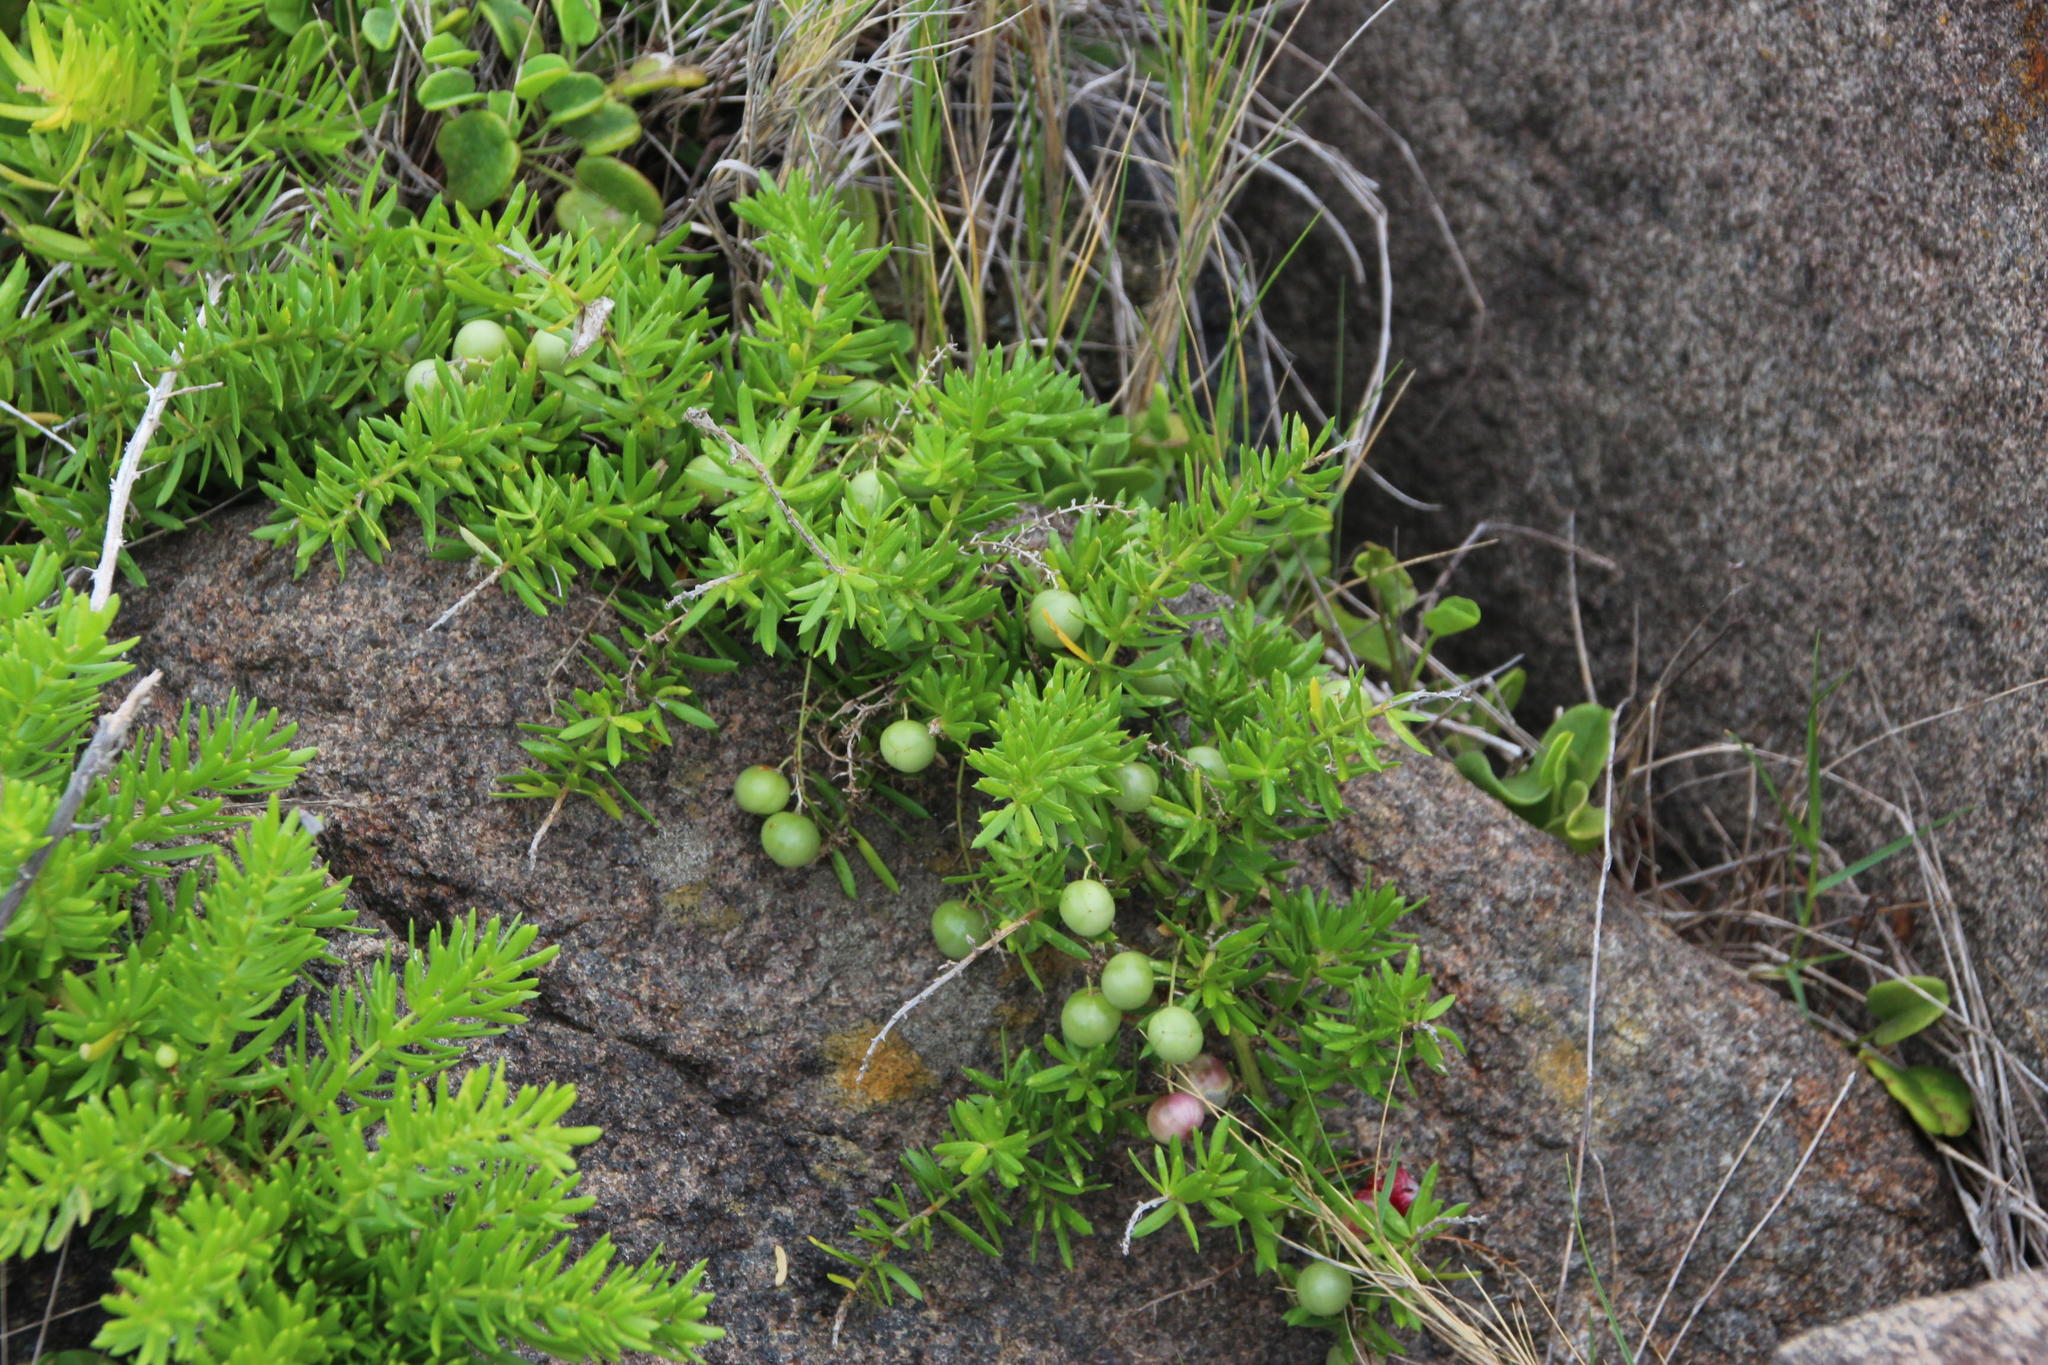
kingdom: Plantae
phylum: Tracheophyta
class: Liliopsida
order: Asparagales
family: Asparagaceae
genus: Asparagus
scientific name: Asparagus densiflorus
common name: Asparagus fern
